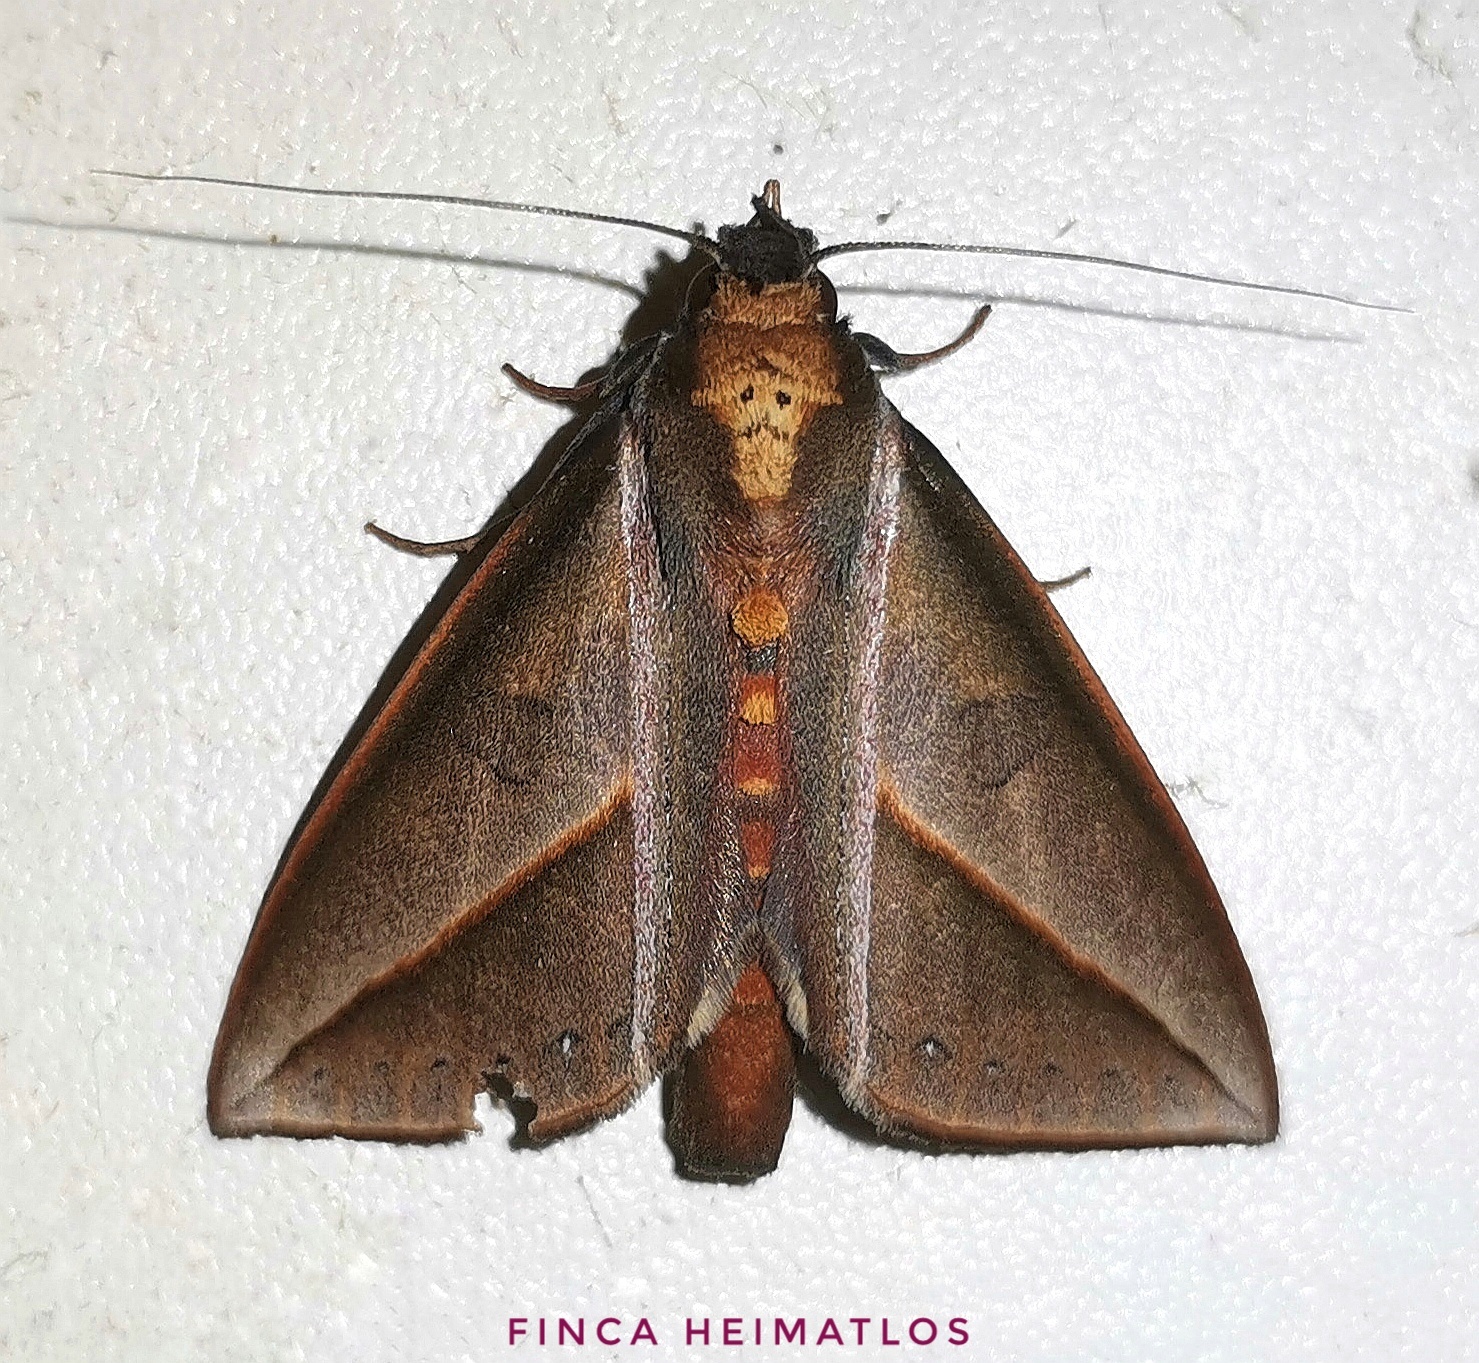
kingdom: Animalia
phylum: Arthropoda
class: Insecta
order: Lepidoptera
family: Notodontidae
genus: Strophocerus
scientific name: Strophocerus sericea
